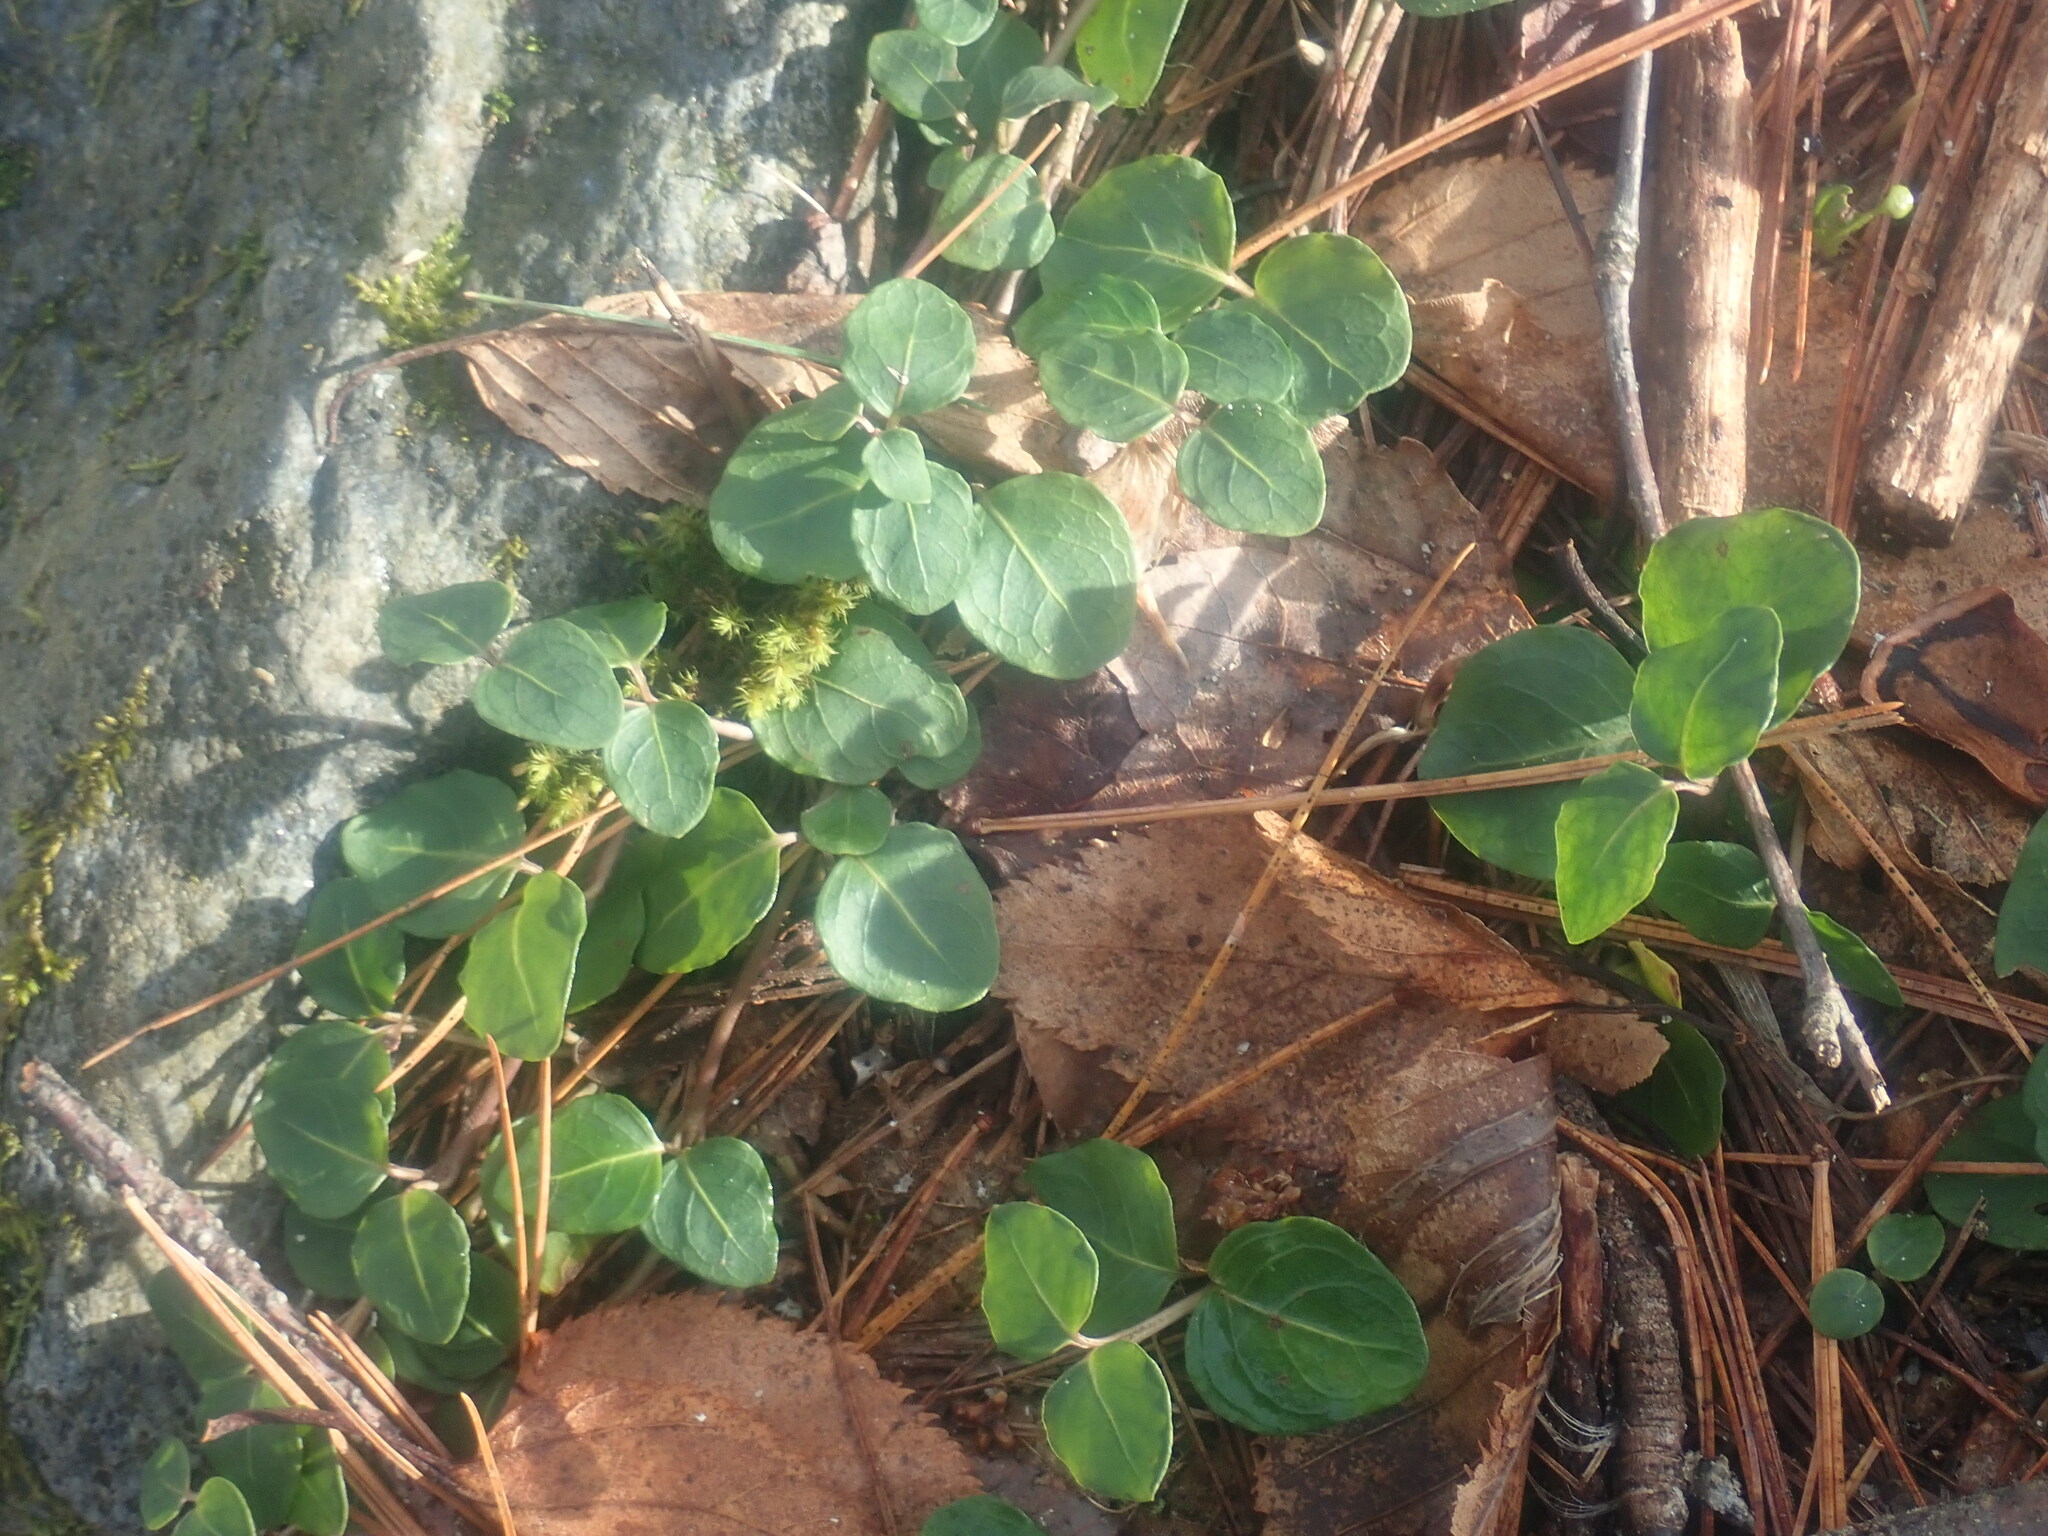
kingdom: Plantae
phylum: Tracheophyta
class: Magnoliopsida
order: Gentianales
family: Rubiaceae
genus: Mitchella
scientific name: Mitchella repens
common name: Partridge-berry
